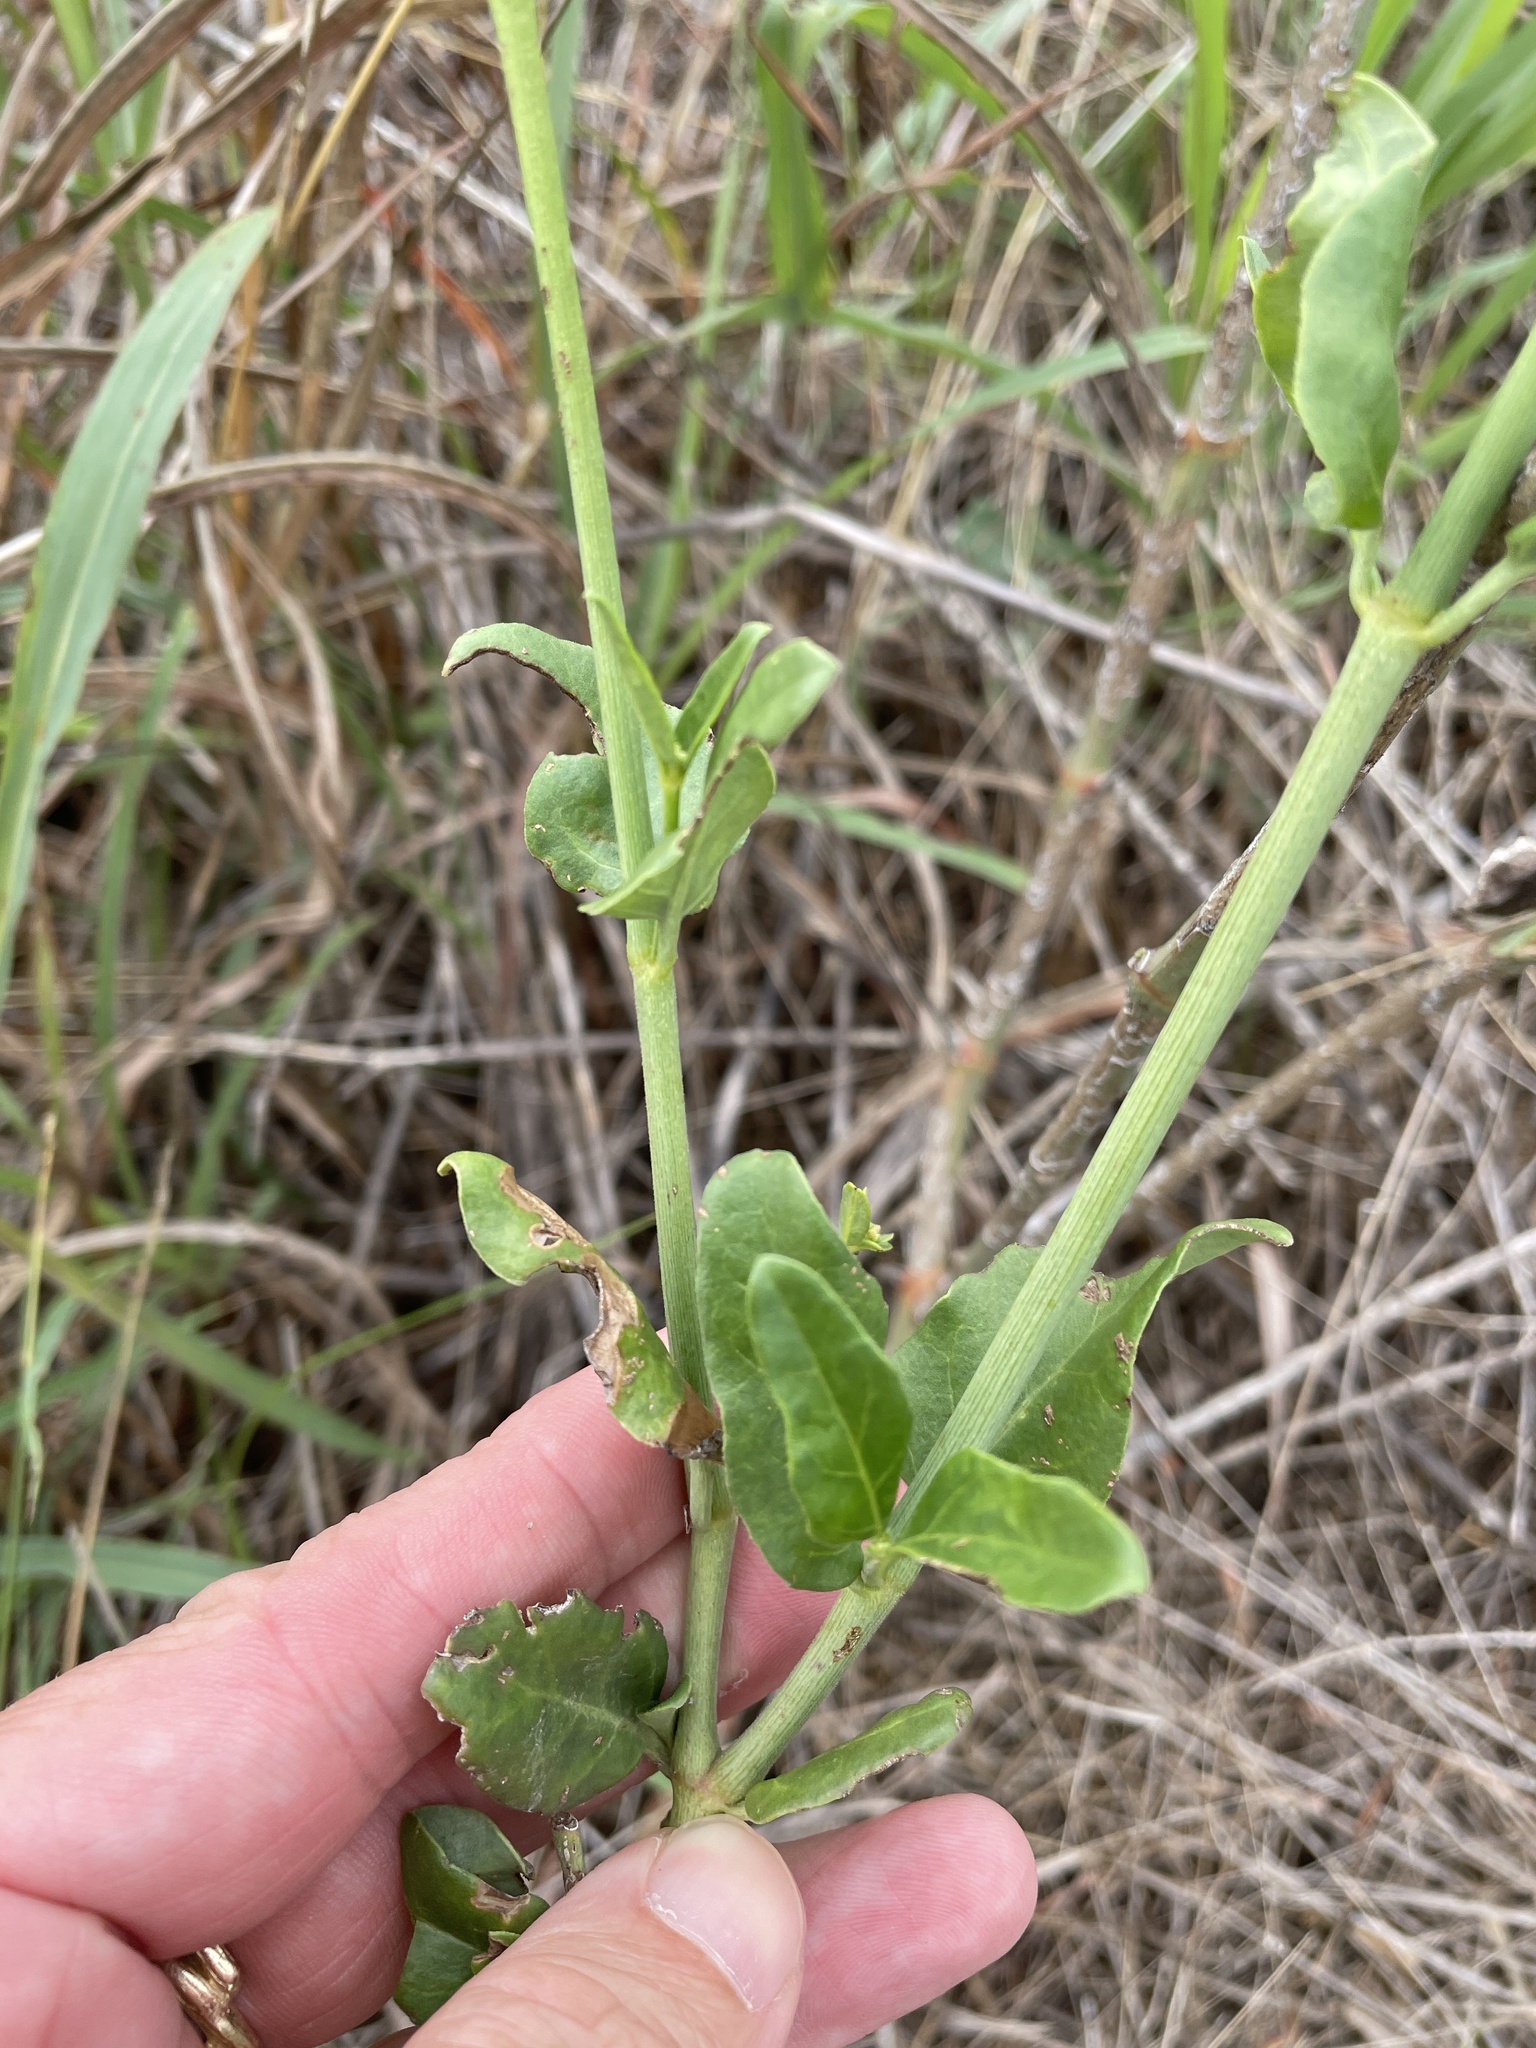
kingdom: Plantae
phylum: Tracheophyta
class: Magnoliopsida
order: Caryophyllales
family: Nyctaginaceae
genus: Mirabilis
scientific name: Mirabilis albida
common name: Hairy four-o'clock
